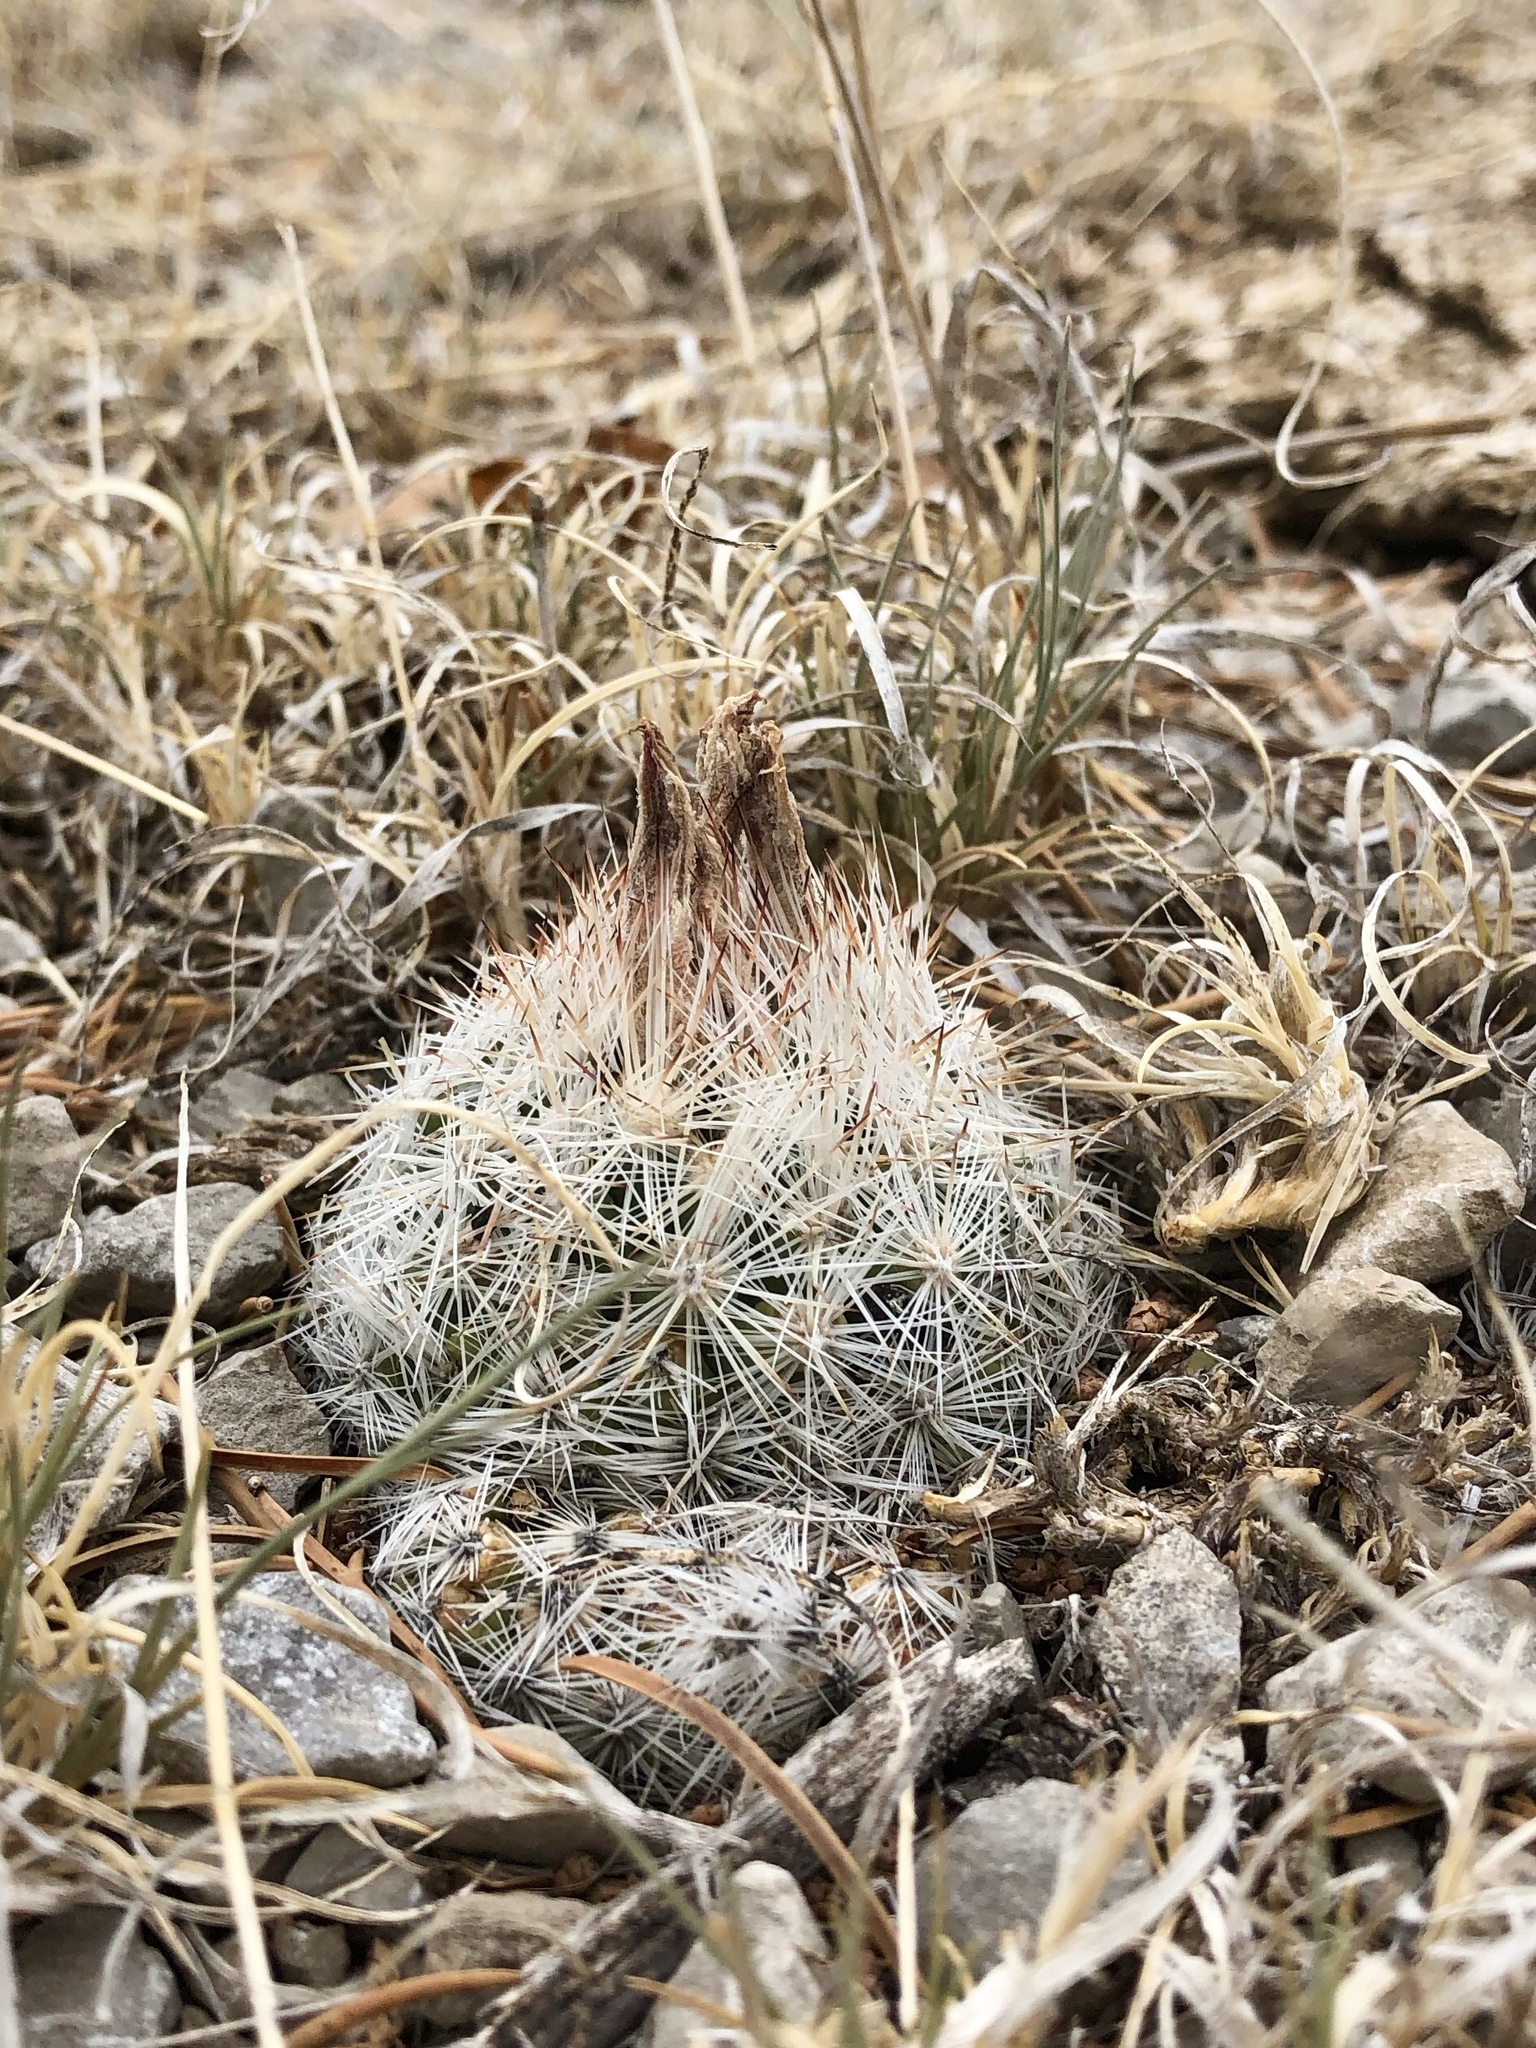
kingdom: Plantae
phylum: Tracheophyta
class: Magnoliopsida
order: Caryophyllales
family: Cactaceae
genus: Pelecyphora
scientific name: Pelecyphora vivipara
